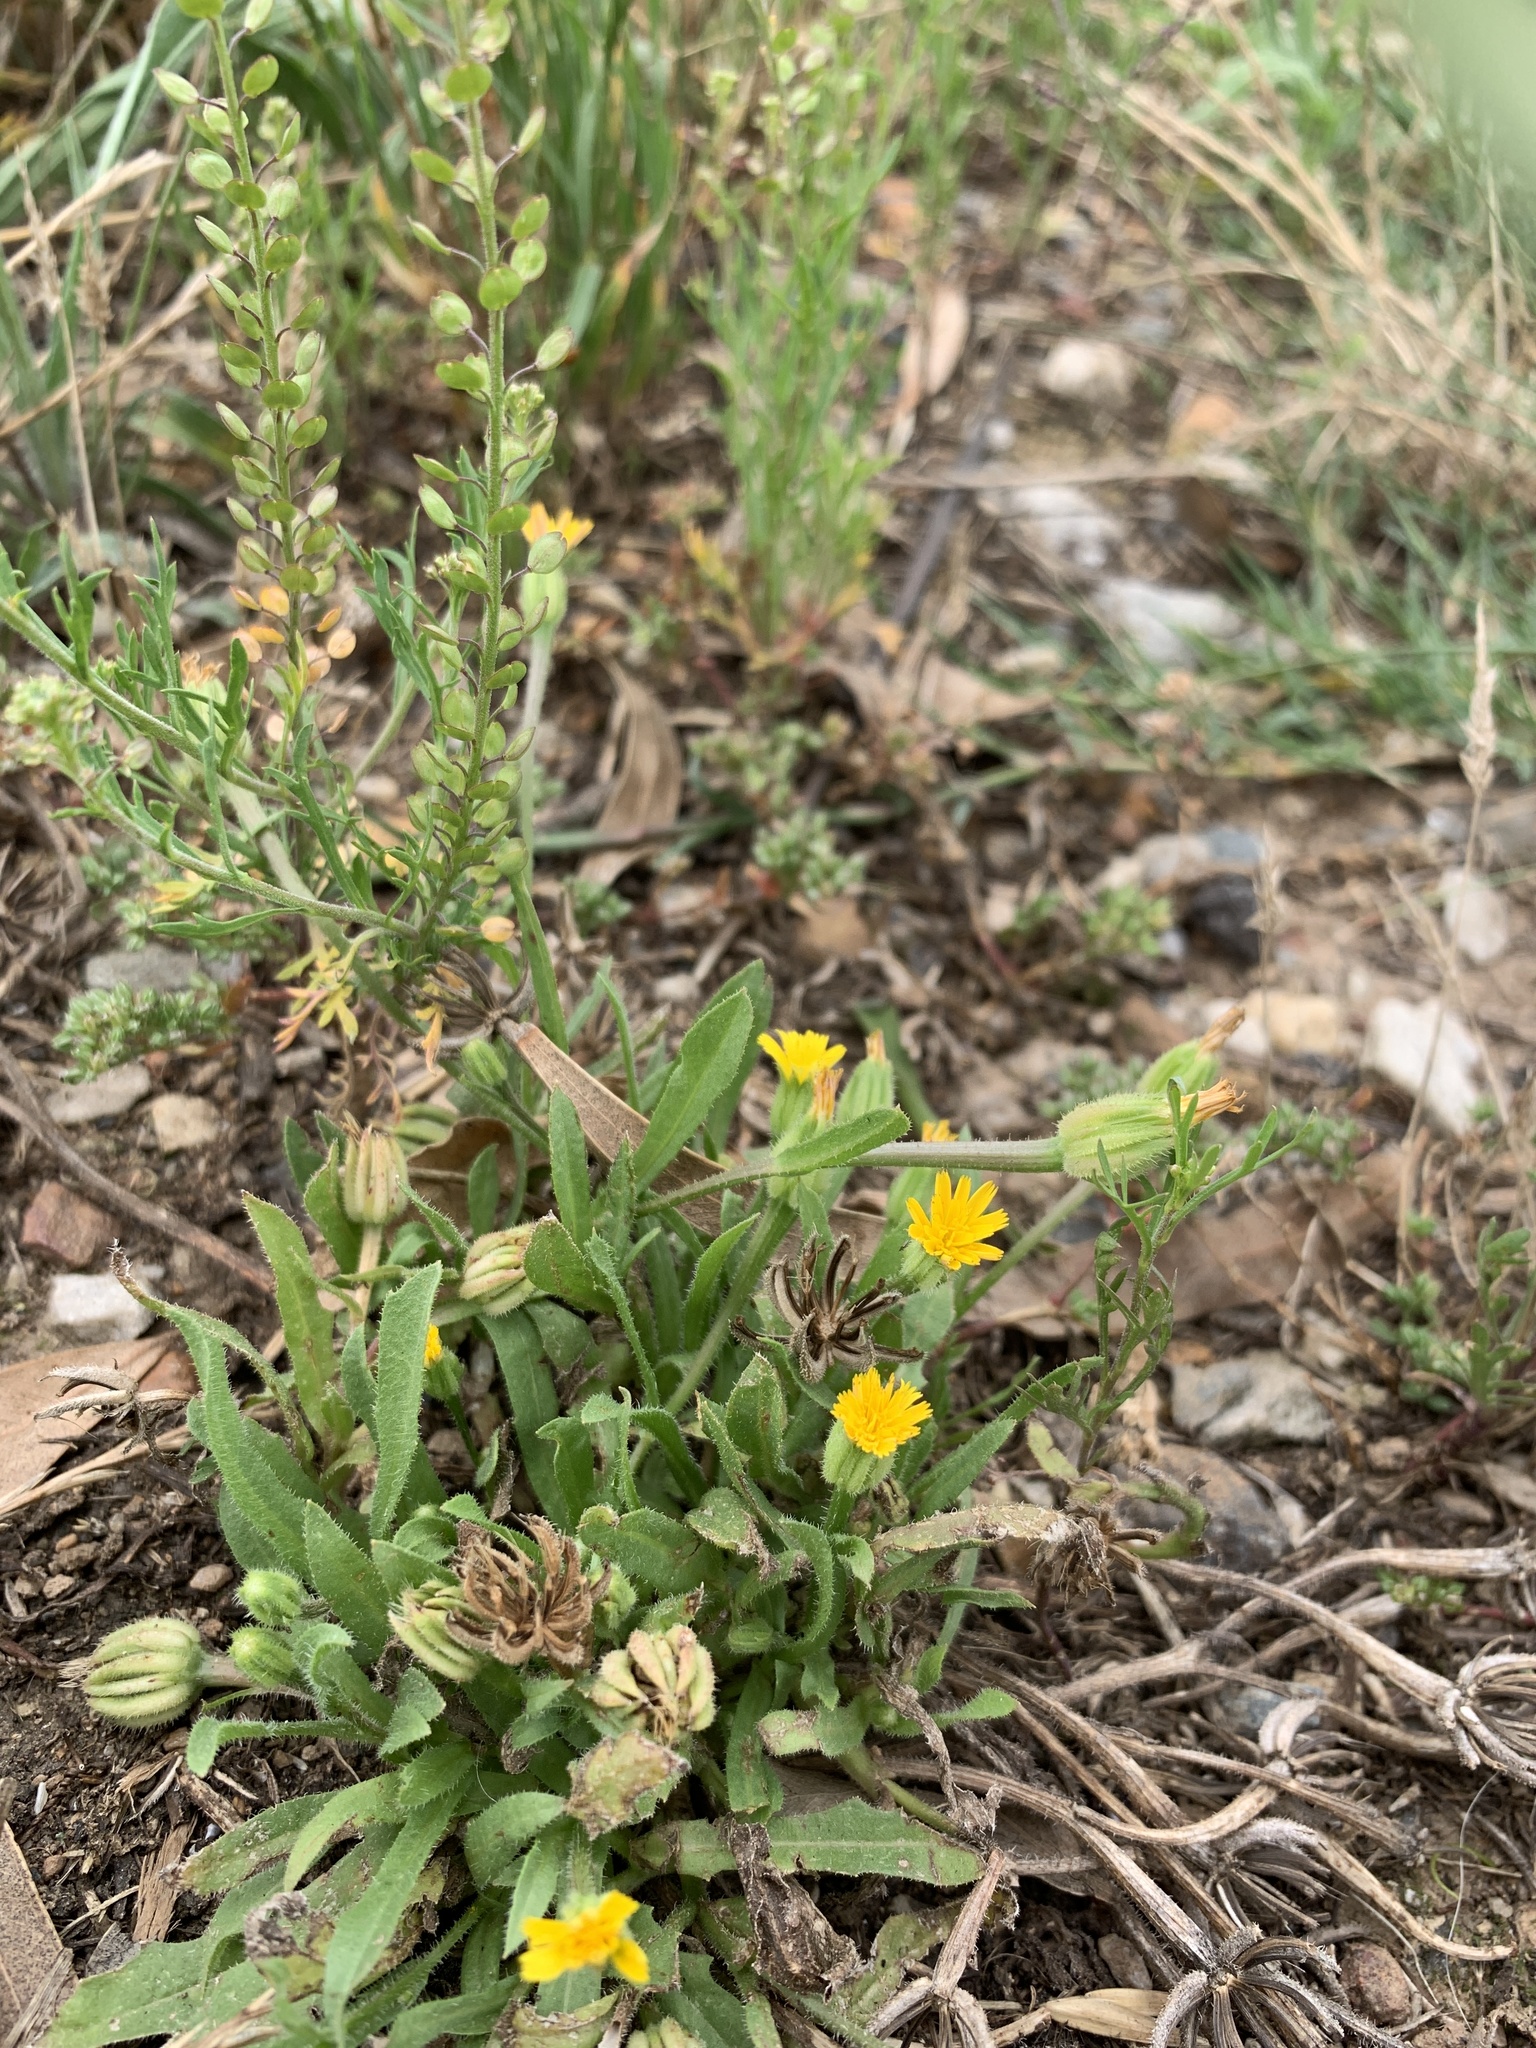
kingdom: Plantae
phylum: Tracheophyta
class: Magnoliopsida
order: Asterales
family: Asteraceae
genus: Hedypnois
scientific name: Hedypnois rhagadioloides
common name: Cretan weed
